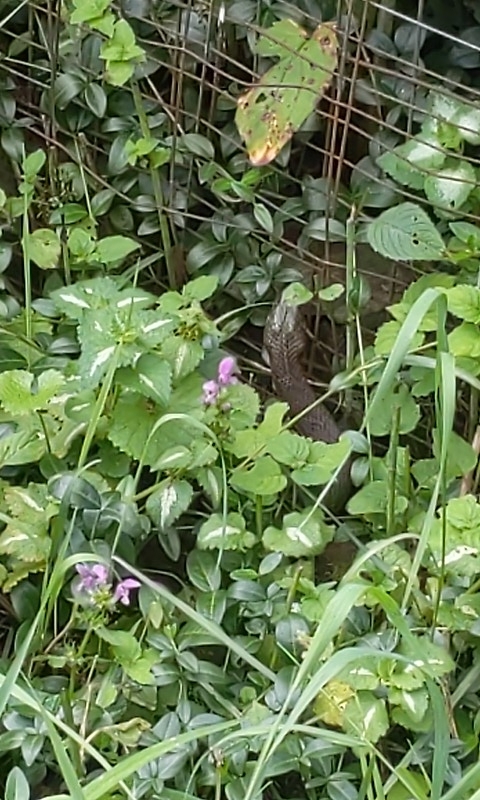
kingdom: Animalia
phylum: Chordata
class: Squamata
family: Colubridae
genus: Nerodia
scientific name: Nerodia sipedon
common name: Northern water snake
